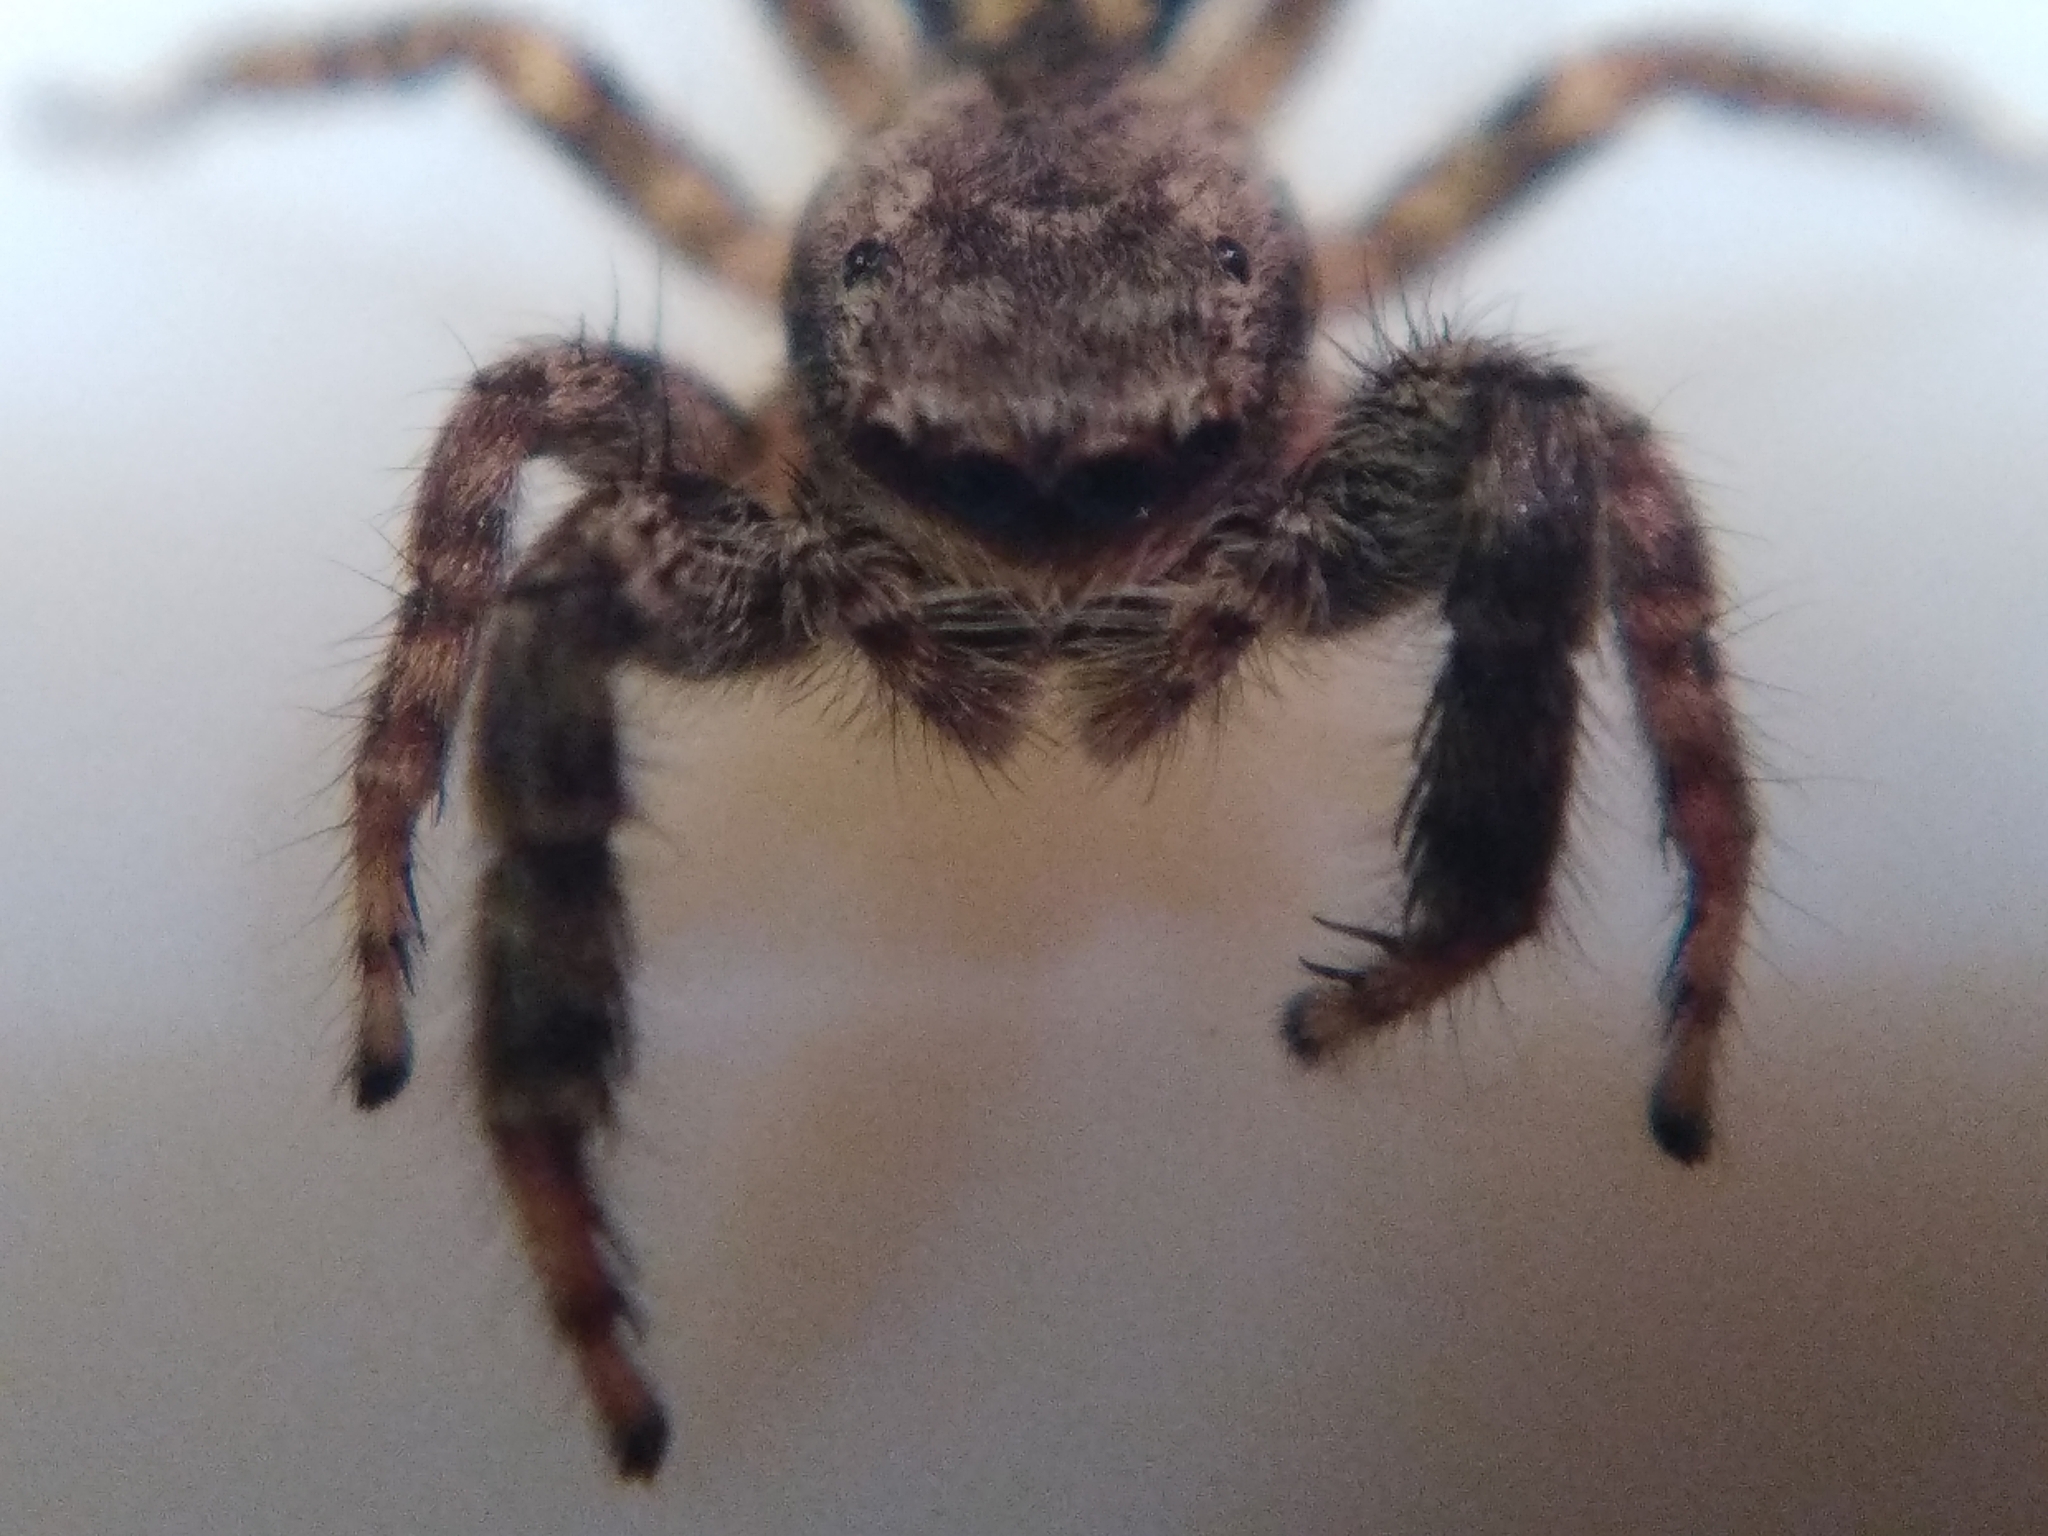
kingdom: Animalia
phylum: Arthropoda
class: Arachnida
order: Araneae
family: Salticidae
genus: Marpissa
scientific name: Marpissa muscosa
